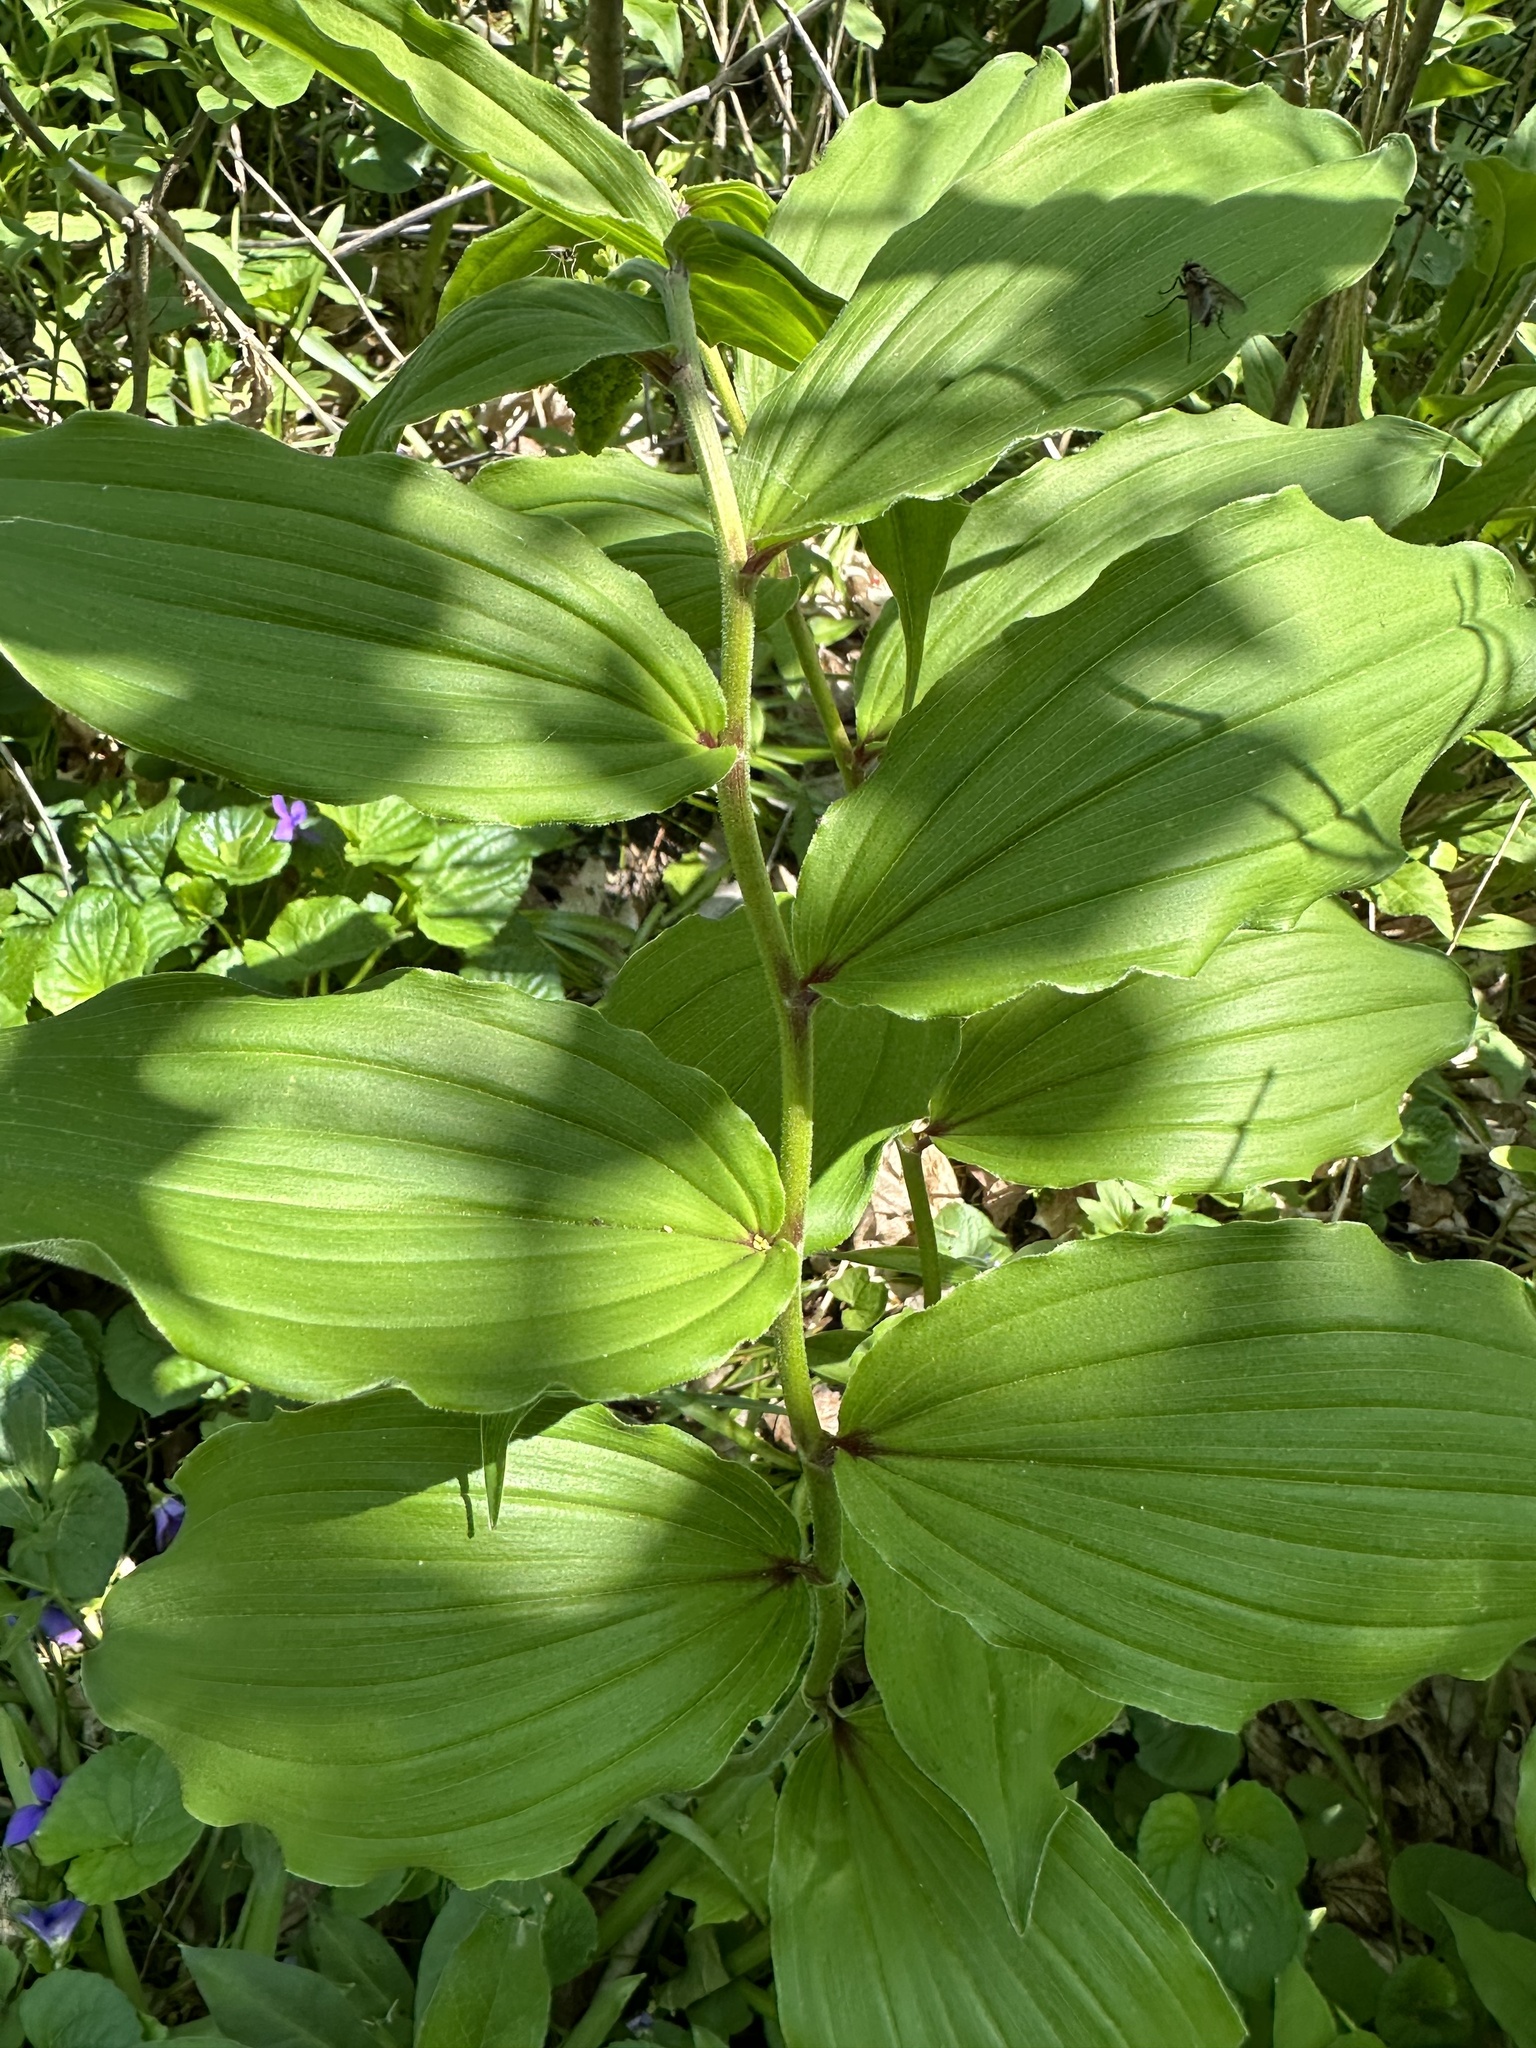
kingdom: Plantae
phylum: Tracheophyta
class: Liliopsida
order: Asparagales
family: Asparagaceae
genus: Maianthemum
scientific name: Maianthemum racemosum
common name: False spikenard
